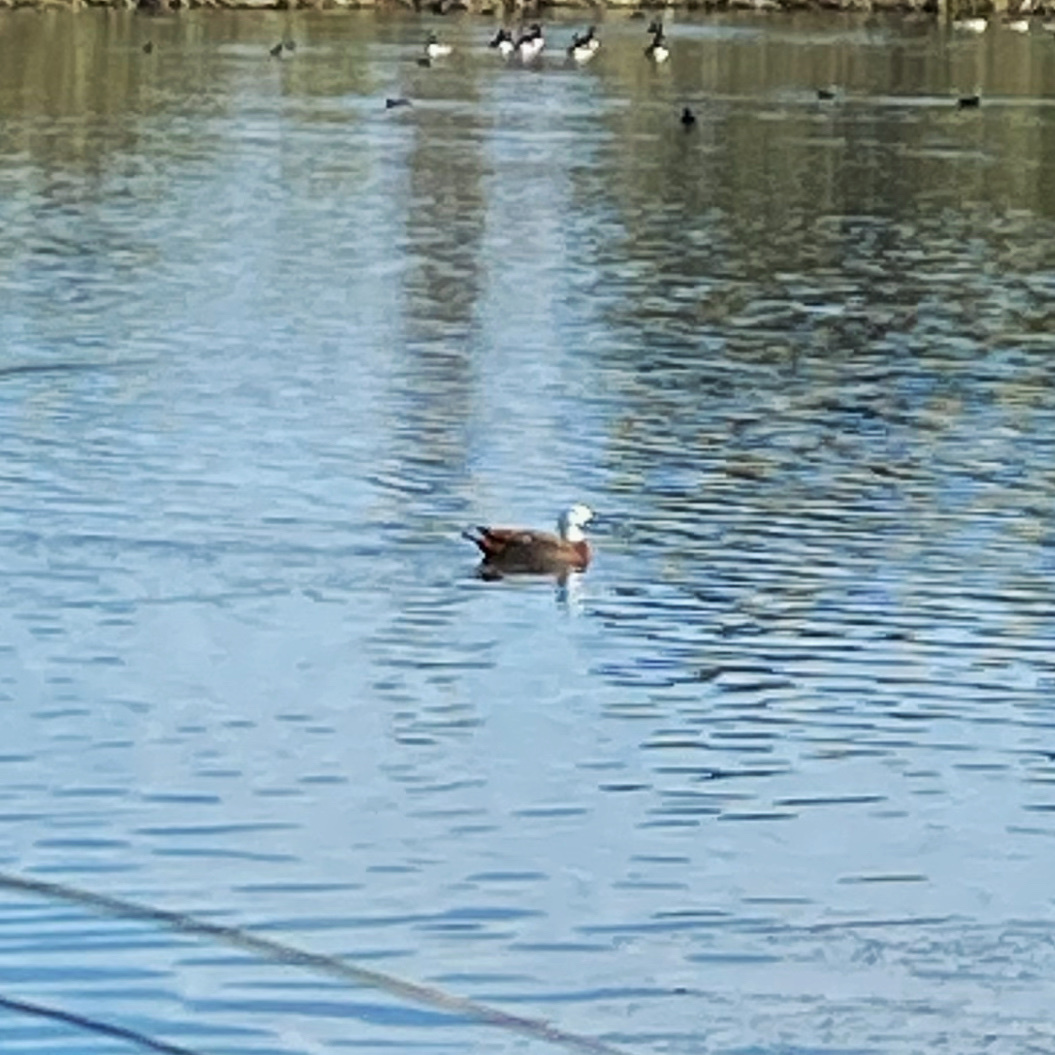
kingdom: Animalia
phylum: Chordata
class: Aves
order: Anseriformes
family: Anatidae
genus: Tadorna
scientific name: Tadorna variegata
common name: Paradise shelduck
